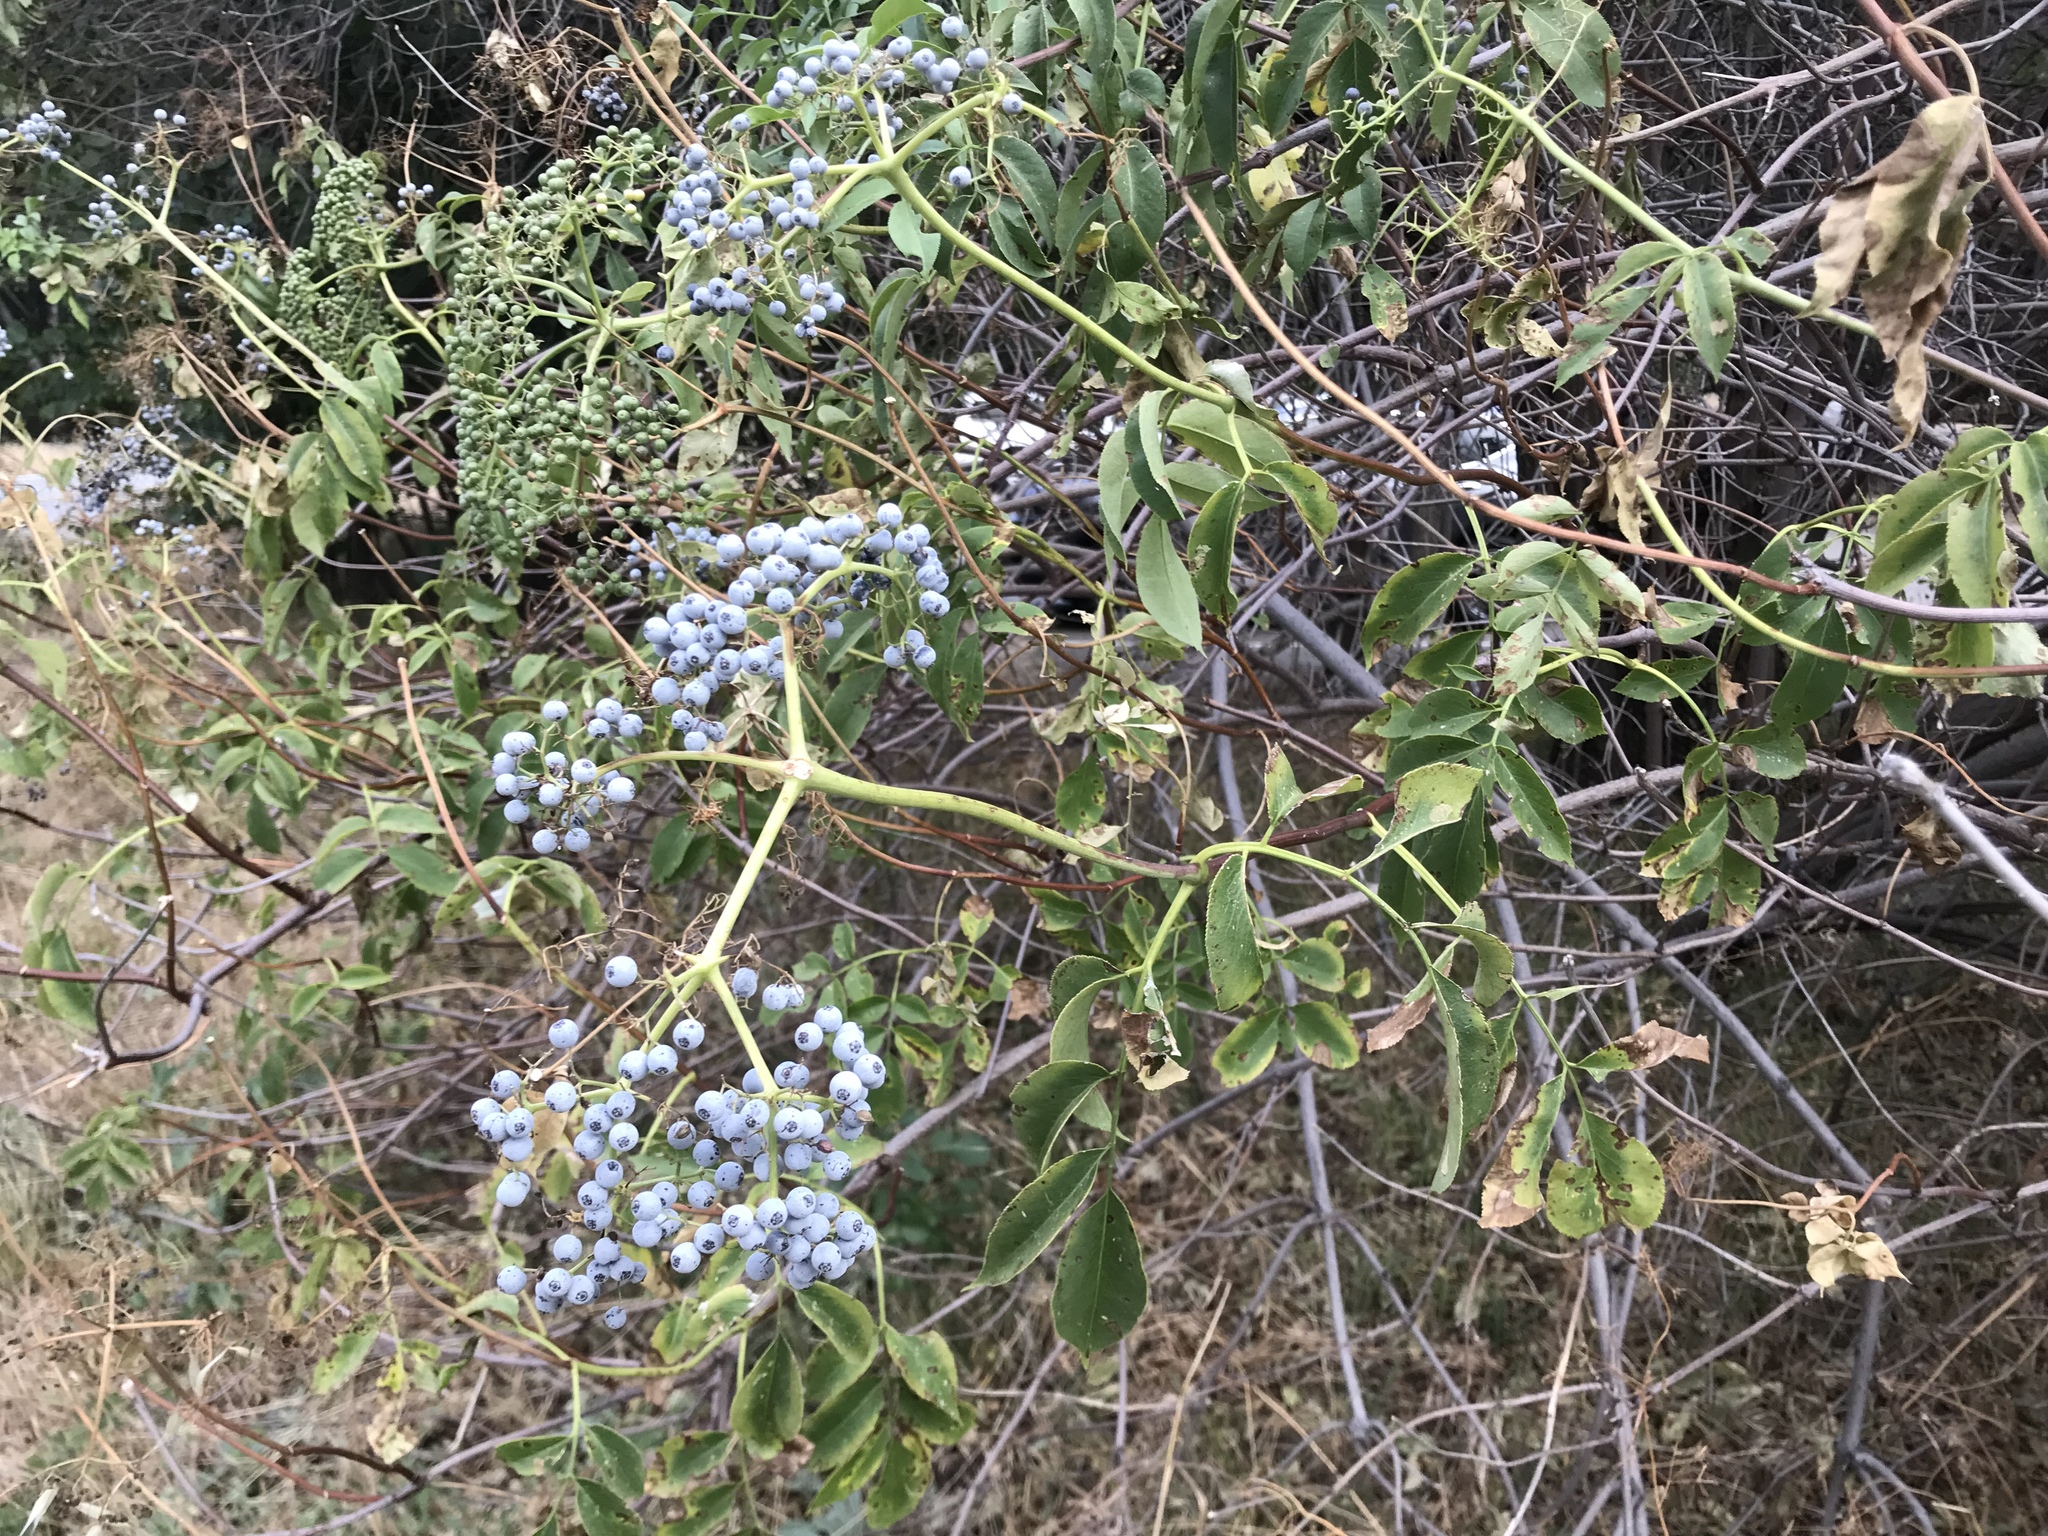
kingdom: Plantae
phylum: Tracheophyta
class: Magnoliopsida
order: Dipsacales
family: Viburnaceae
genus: Sambucus
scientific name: Sambucus cerulea
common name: Blue elder
